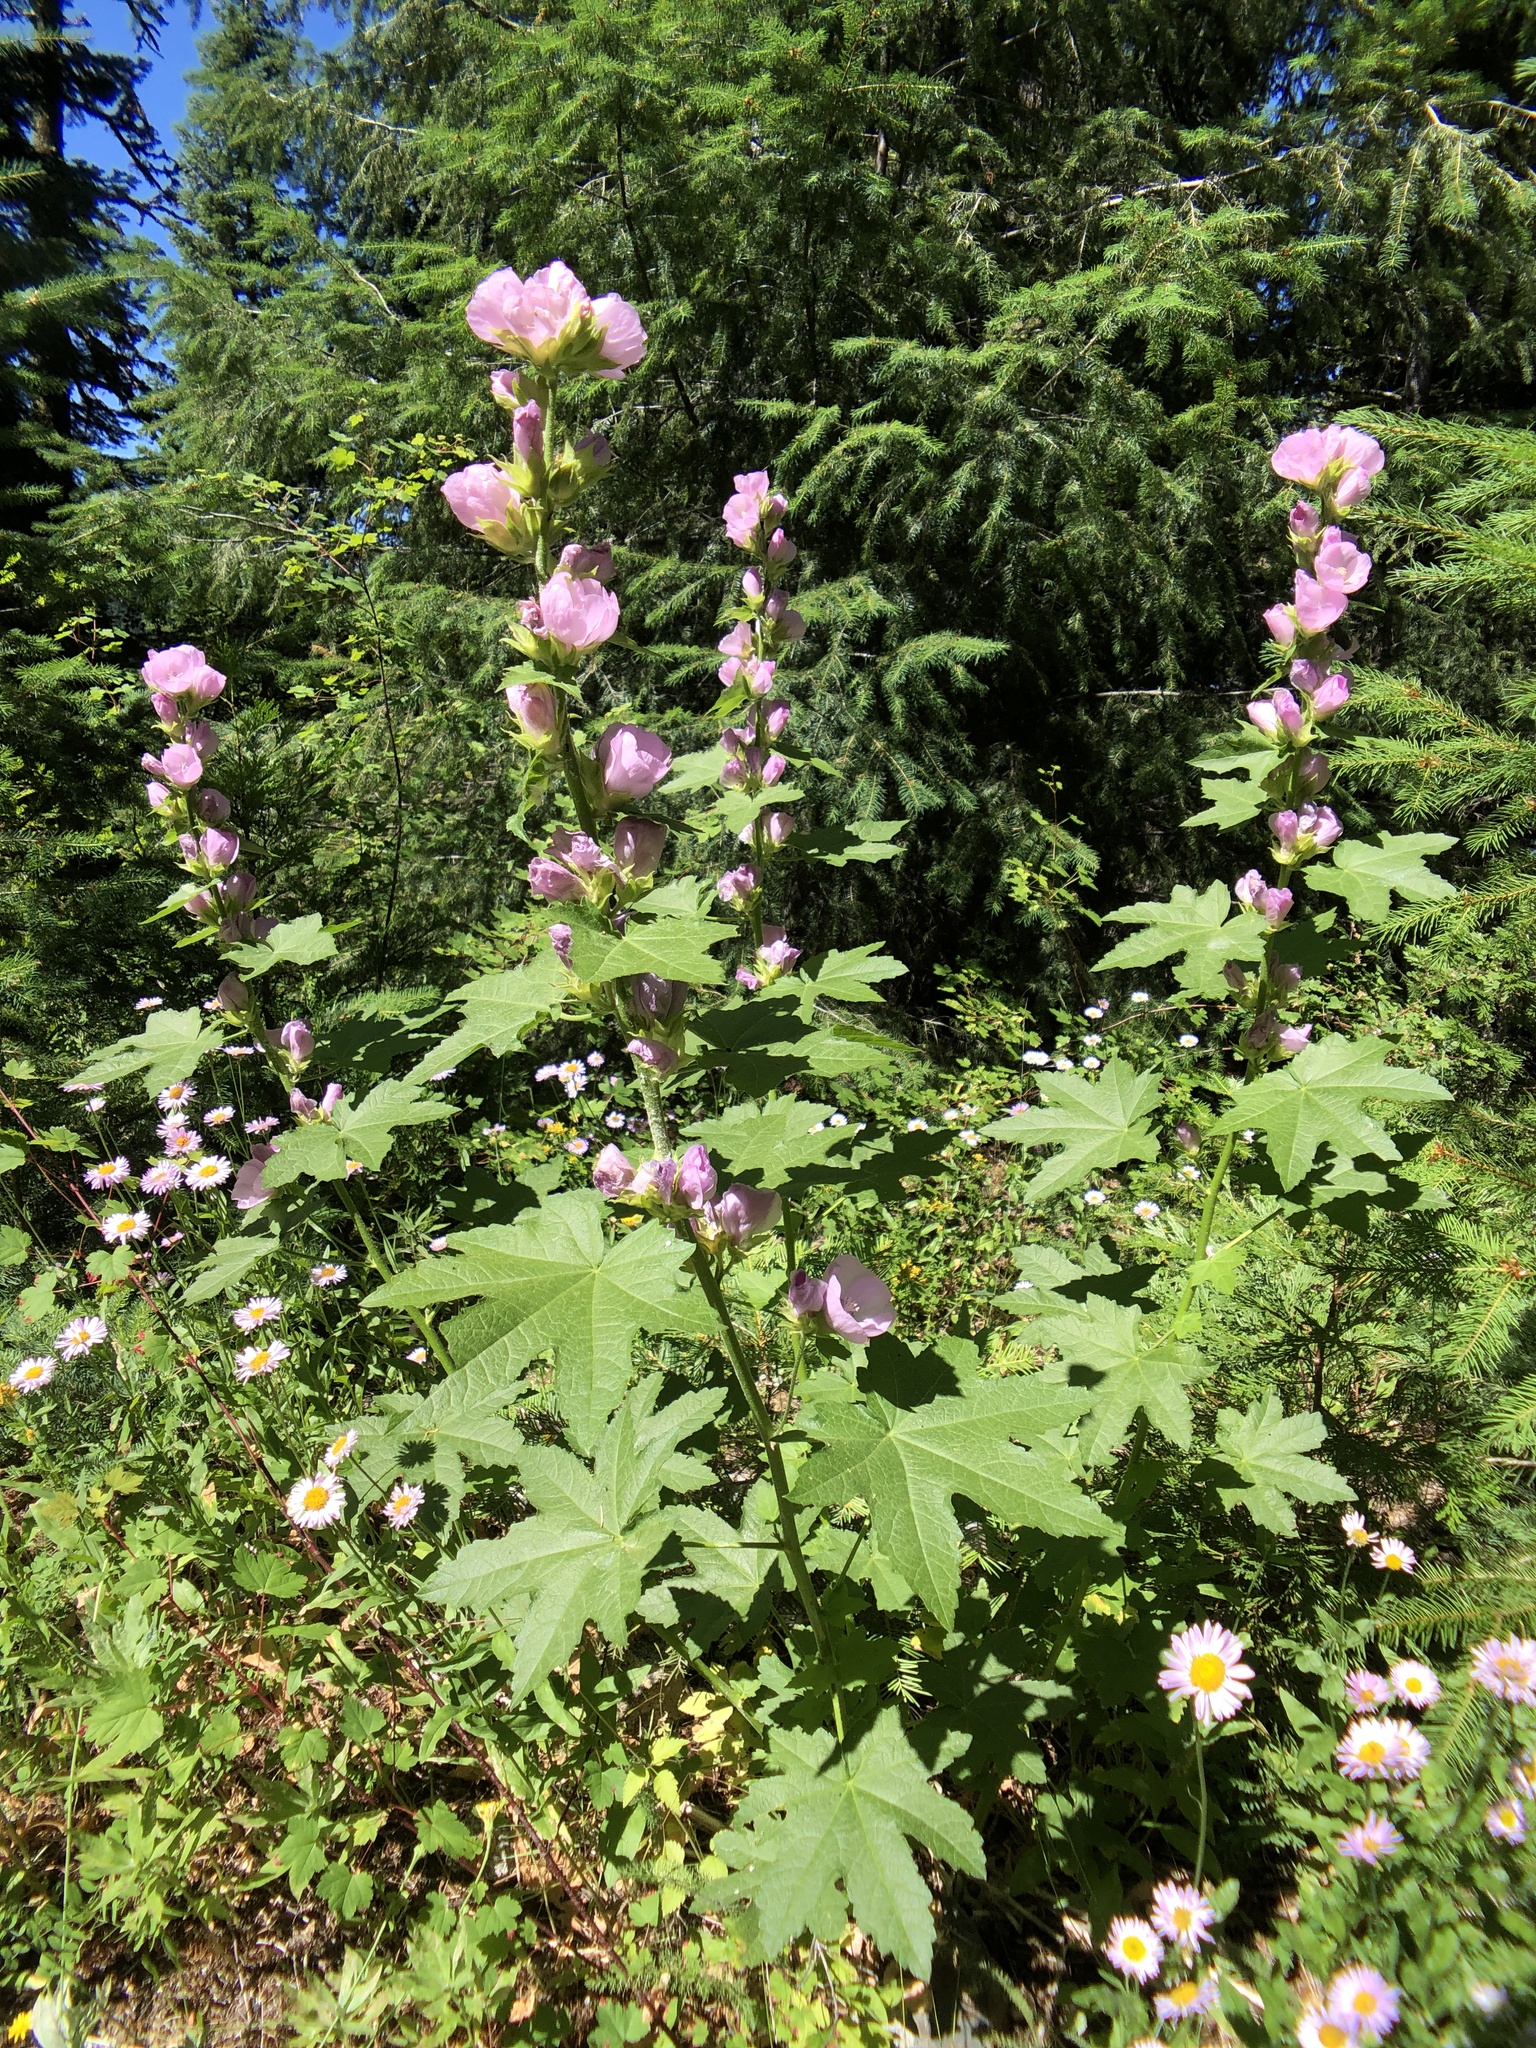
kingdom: Plantae
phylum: Tracheophyta
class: Magnoliopsida
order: Malvales
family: Malvaceae
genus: Iliamna
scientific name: Iliamna latibracteata
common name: California globe-mallow
